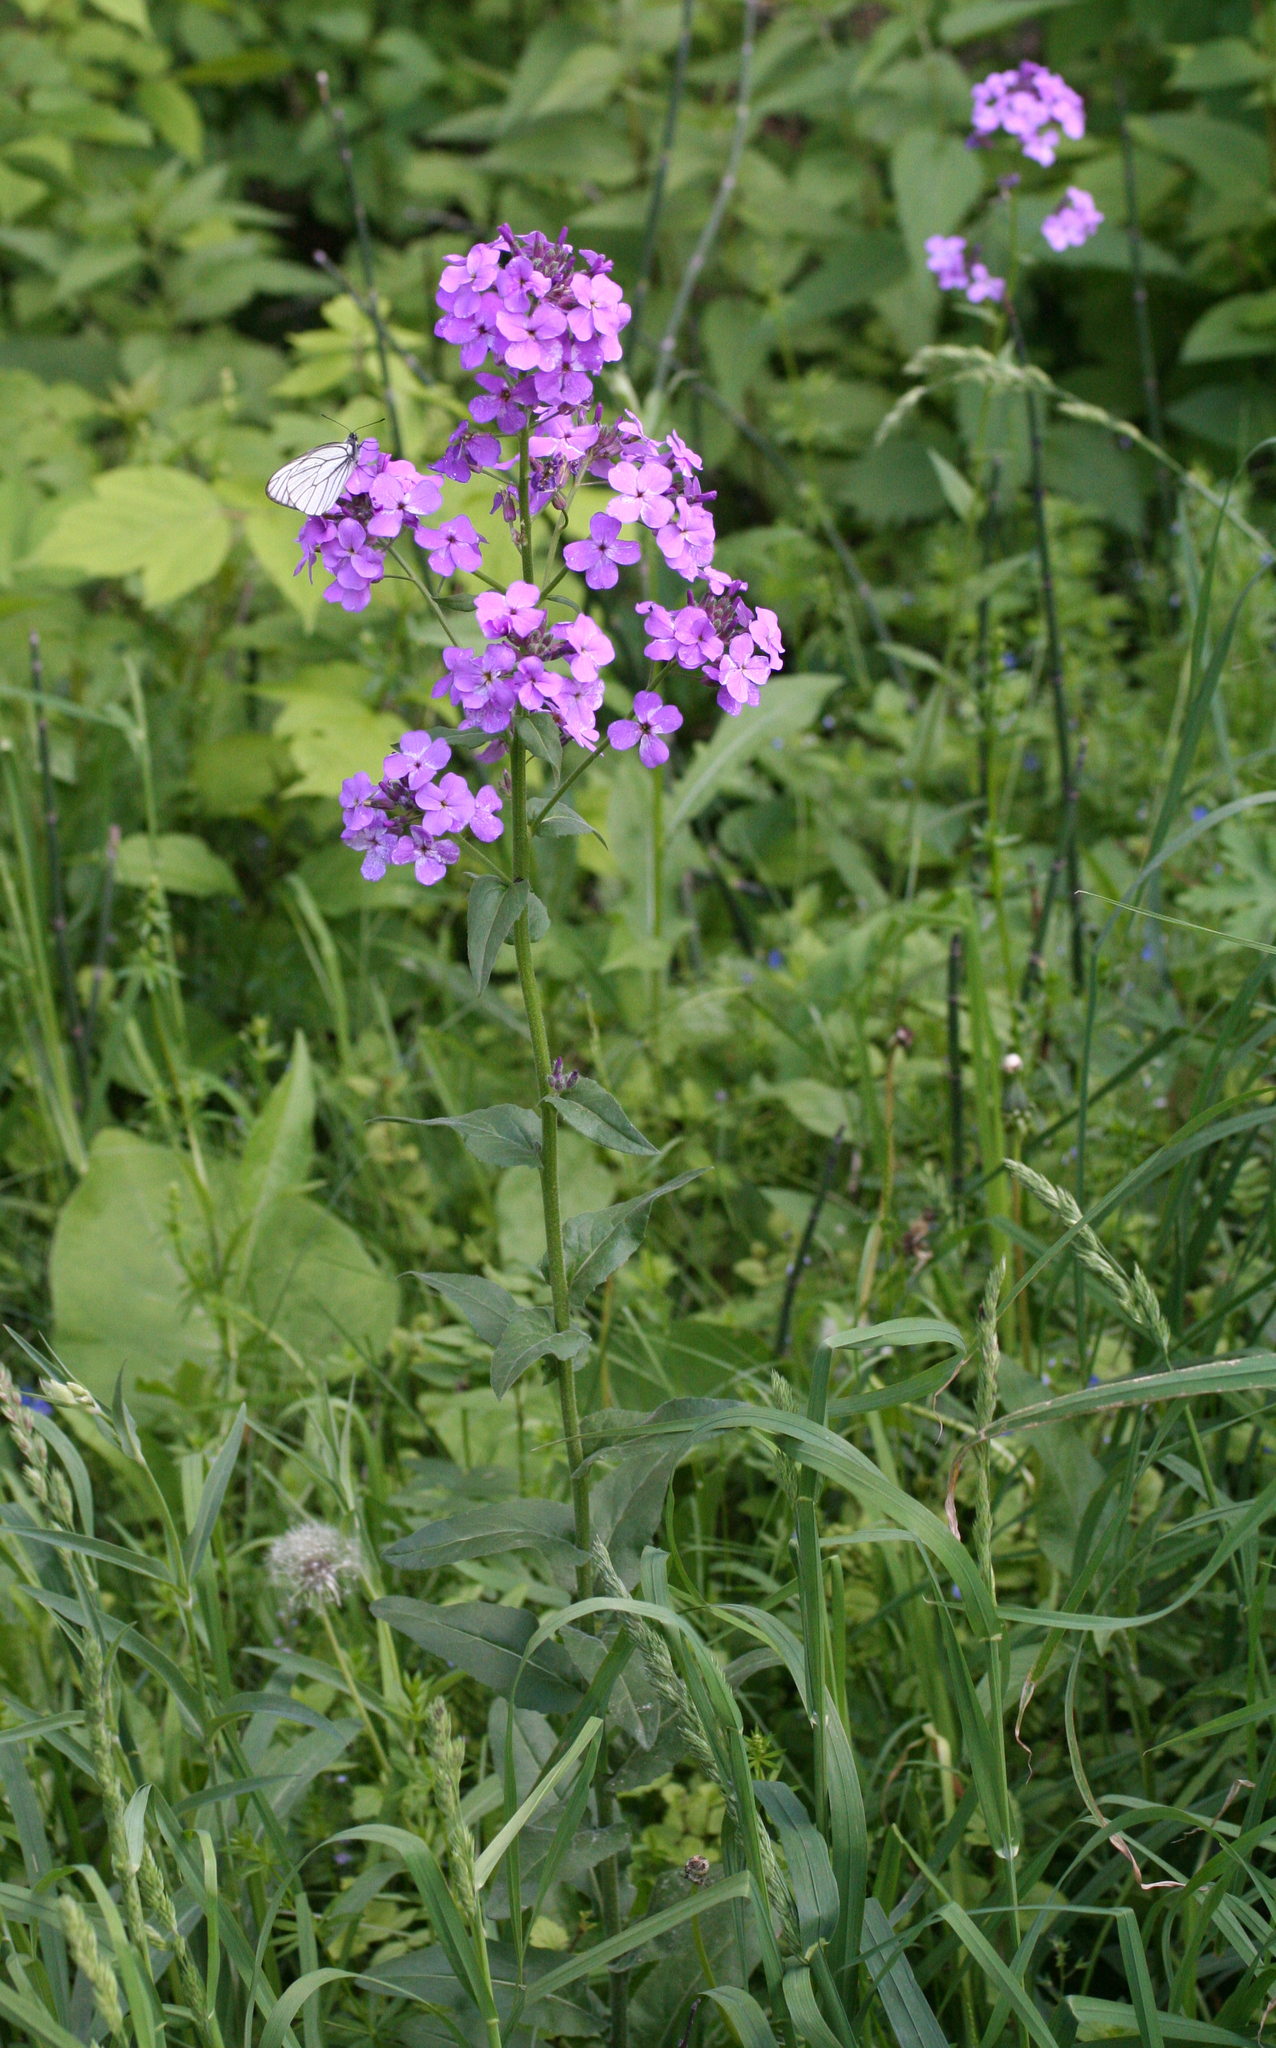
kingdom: Plantae
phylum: Tracheophyta
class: Magnoliopsida
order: Brassicales
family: Brassicaceae
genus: Hesperis
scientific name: Hesperis sibirica
